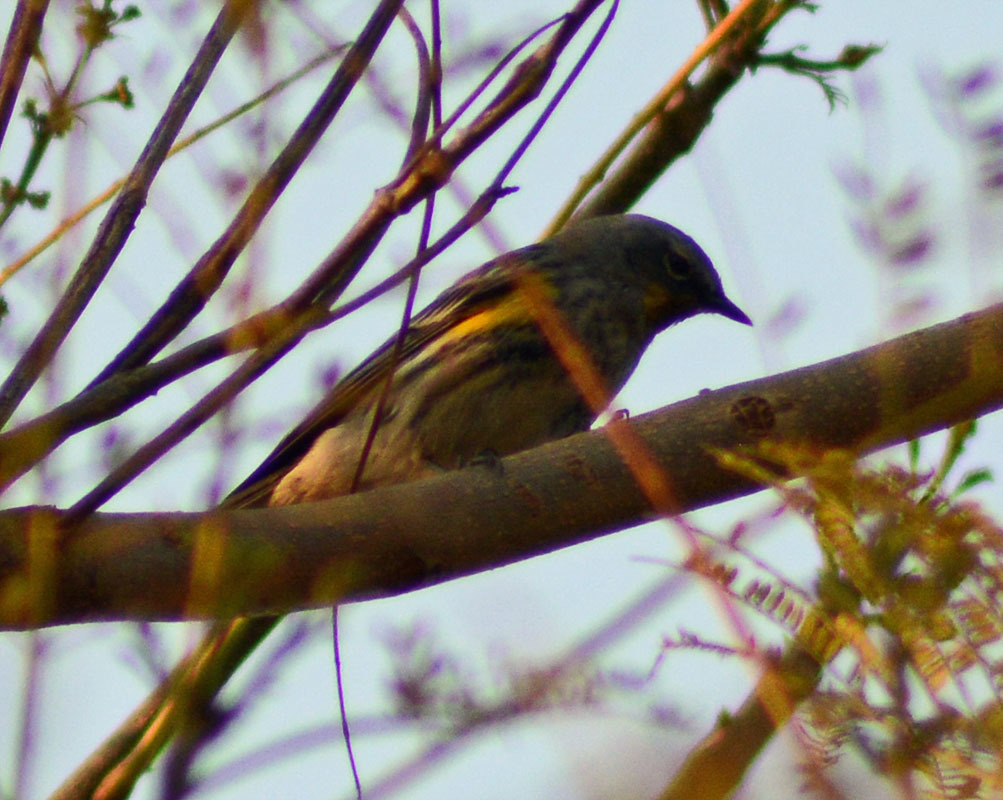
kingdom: Animalia
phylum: Chordata
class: Aves
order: Passeriformes
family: Parulidae
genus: Setophaga
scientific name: Setophaga coronata
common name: Myrtle warbler
